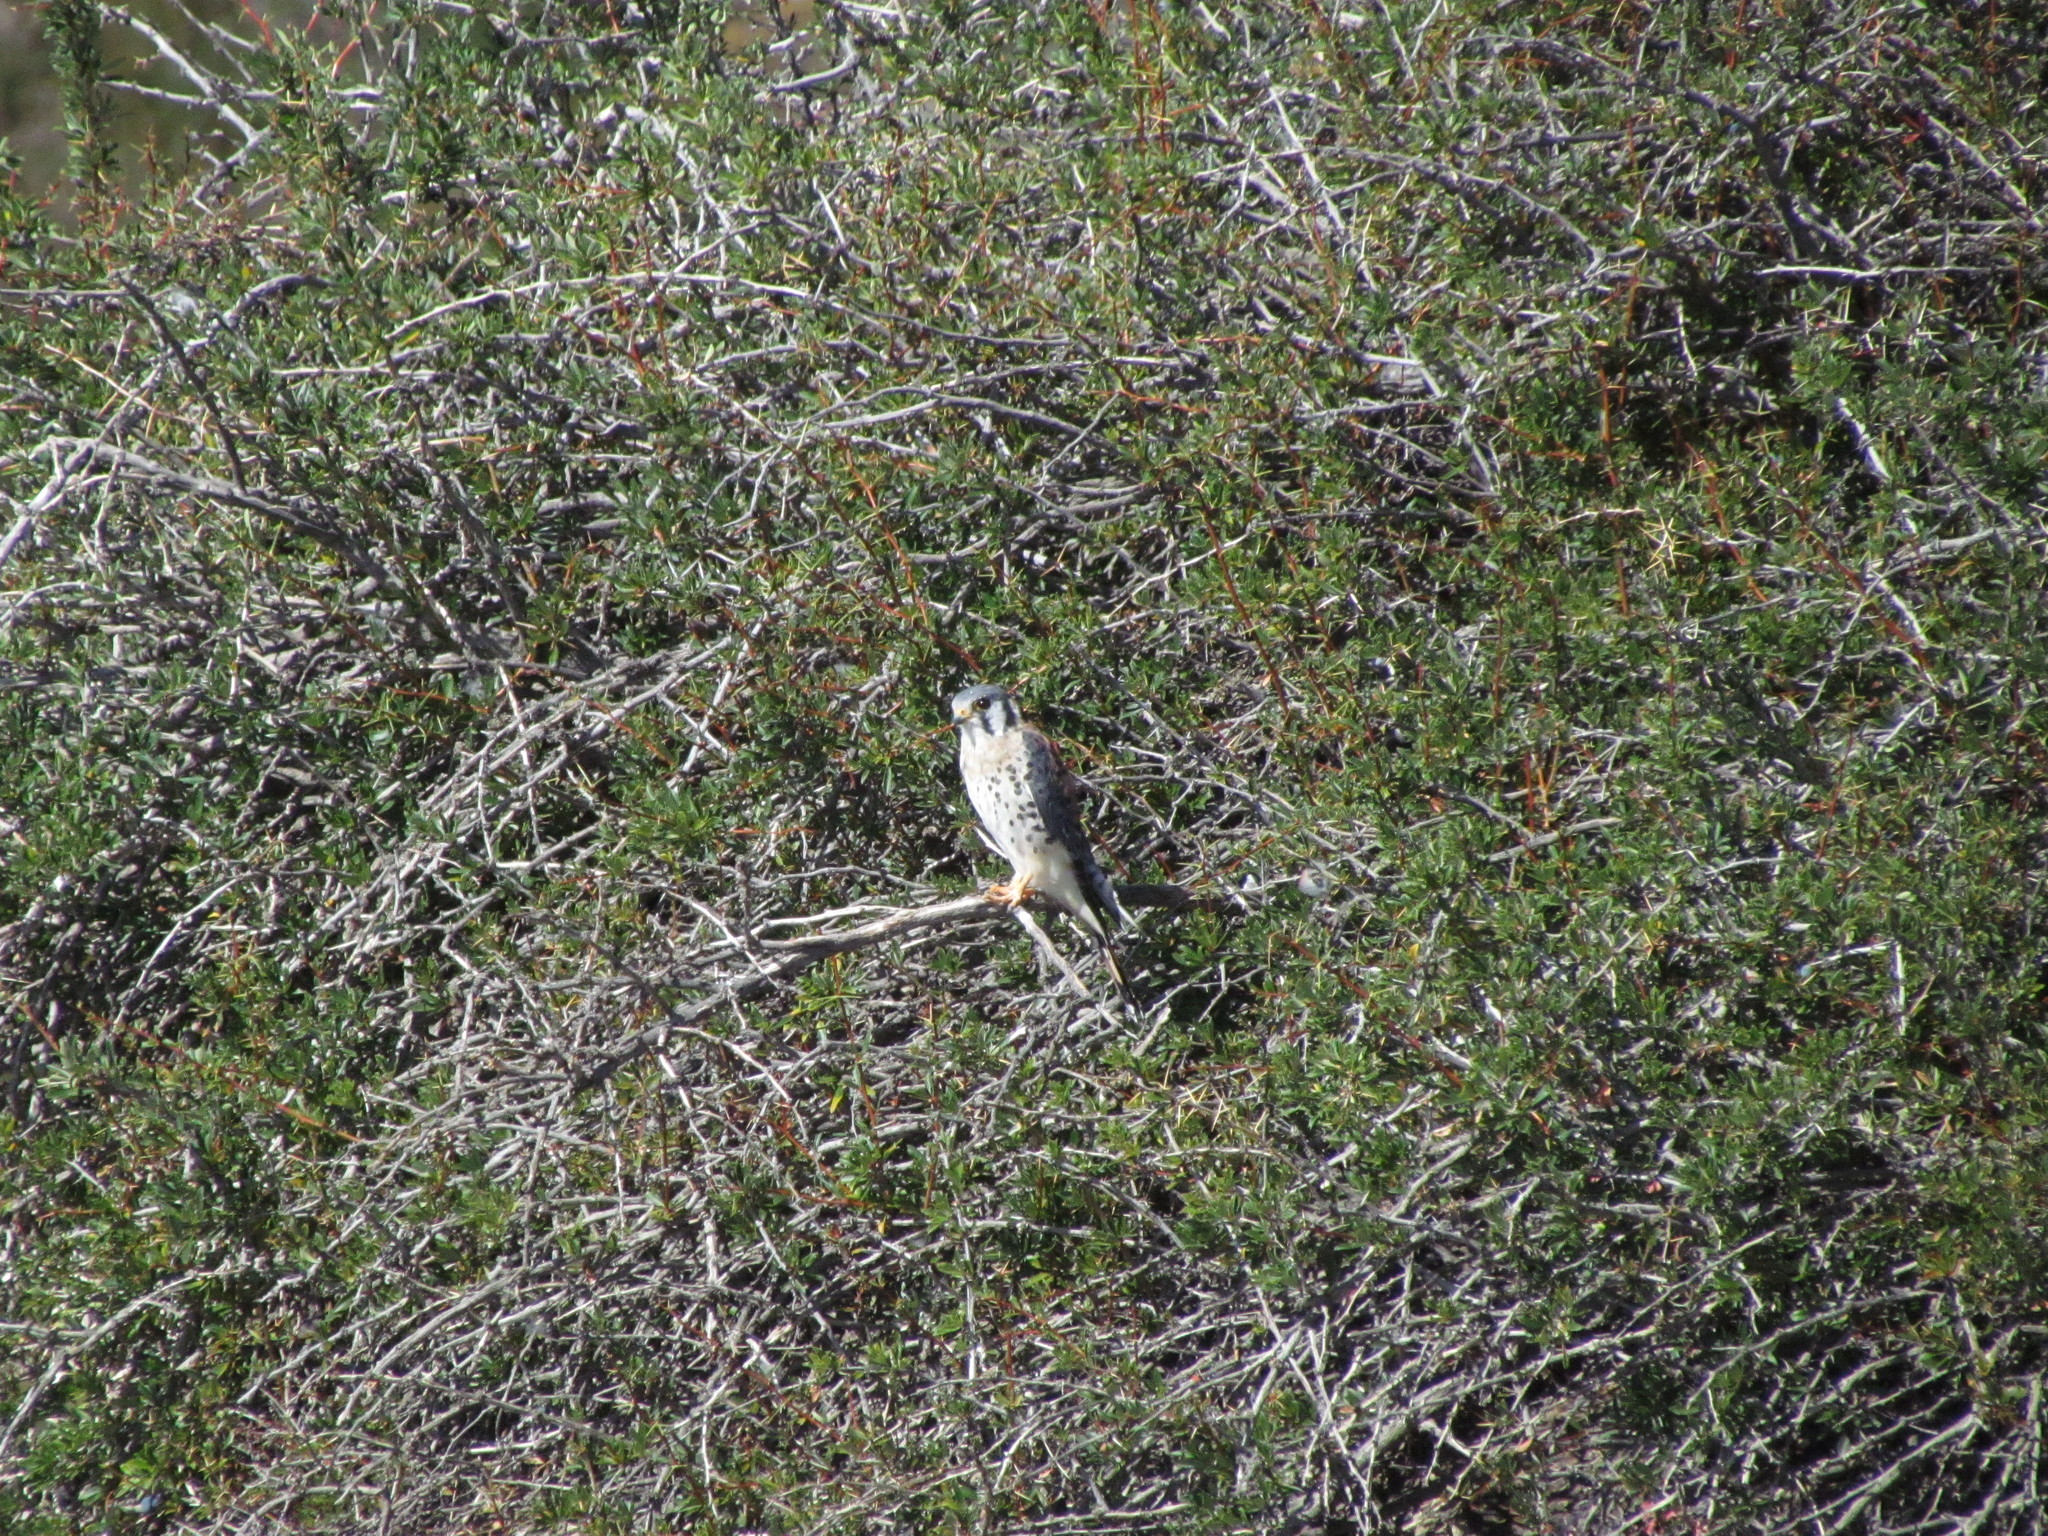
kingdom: Animalia
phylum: Chordata
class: Aves
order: Falconiformes
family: Falconidae
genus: Falco
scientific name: Falco sparverius
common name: American kestrel
